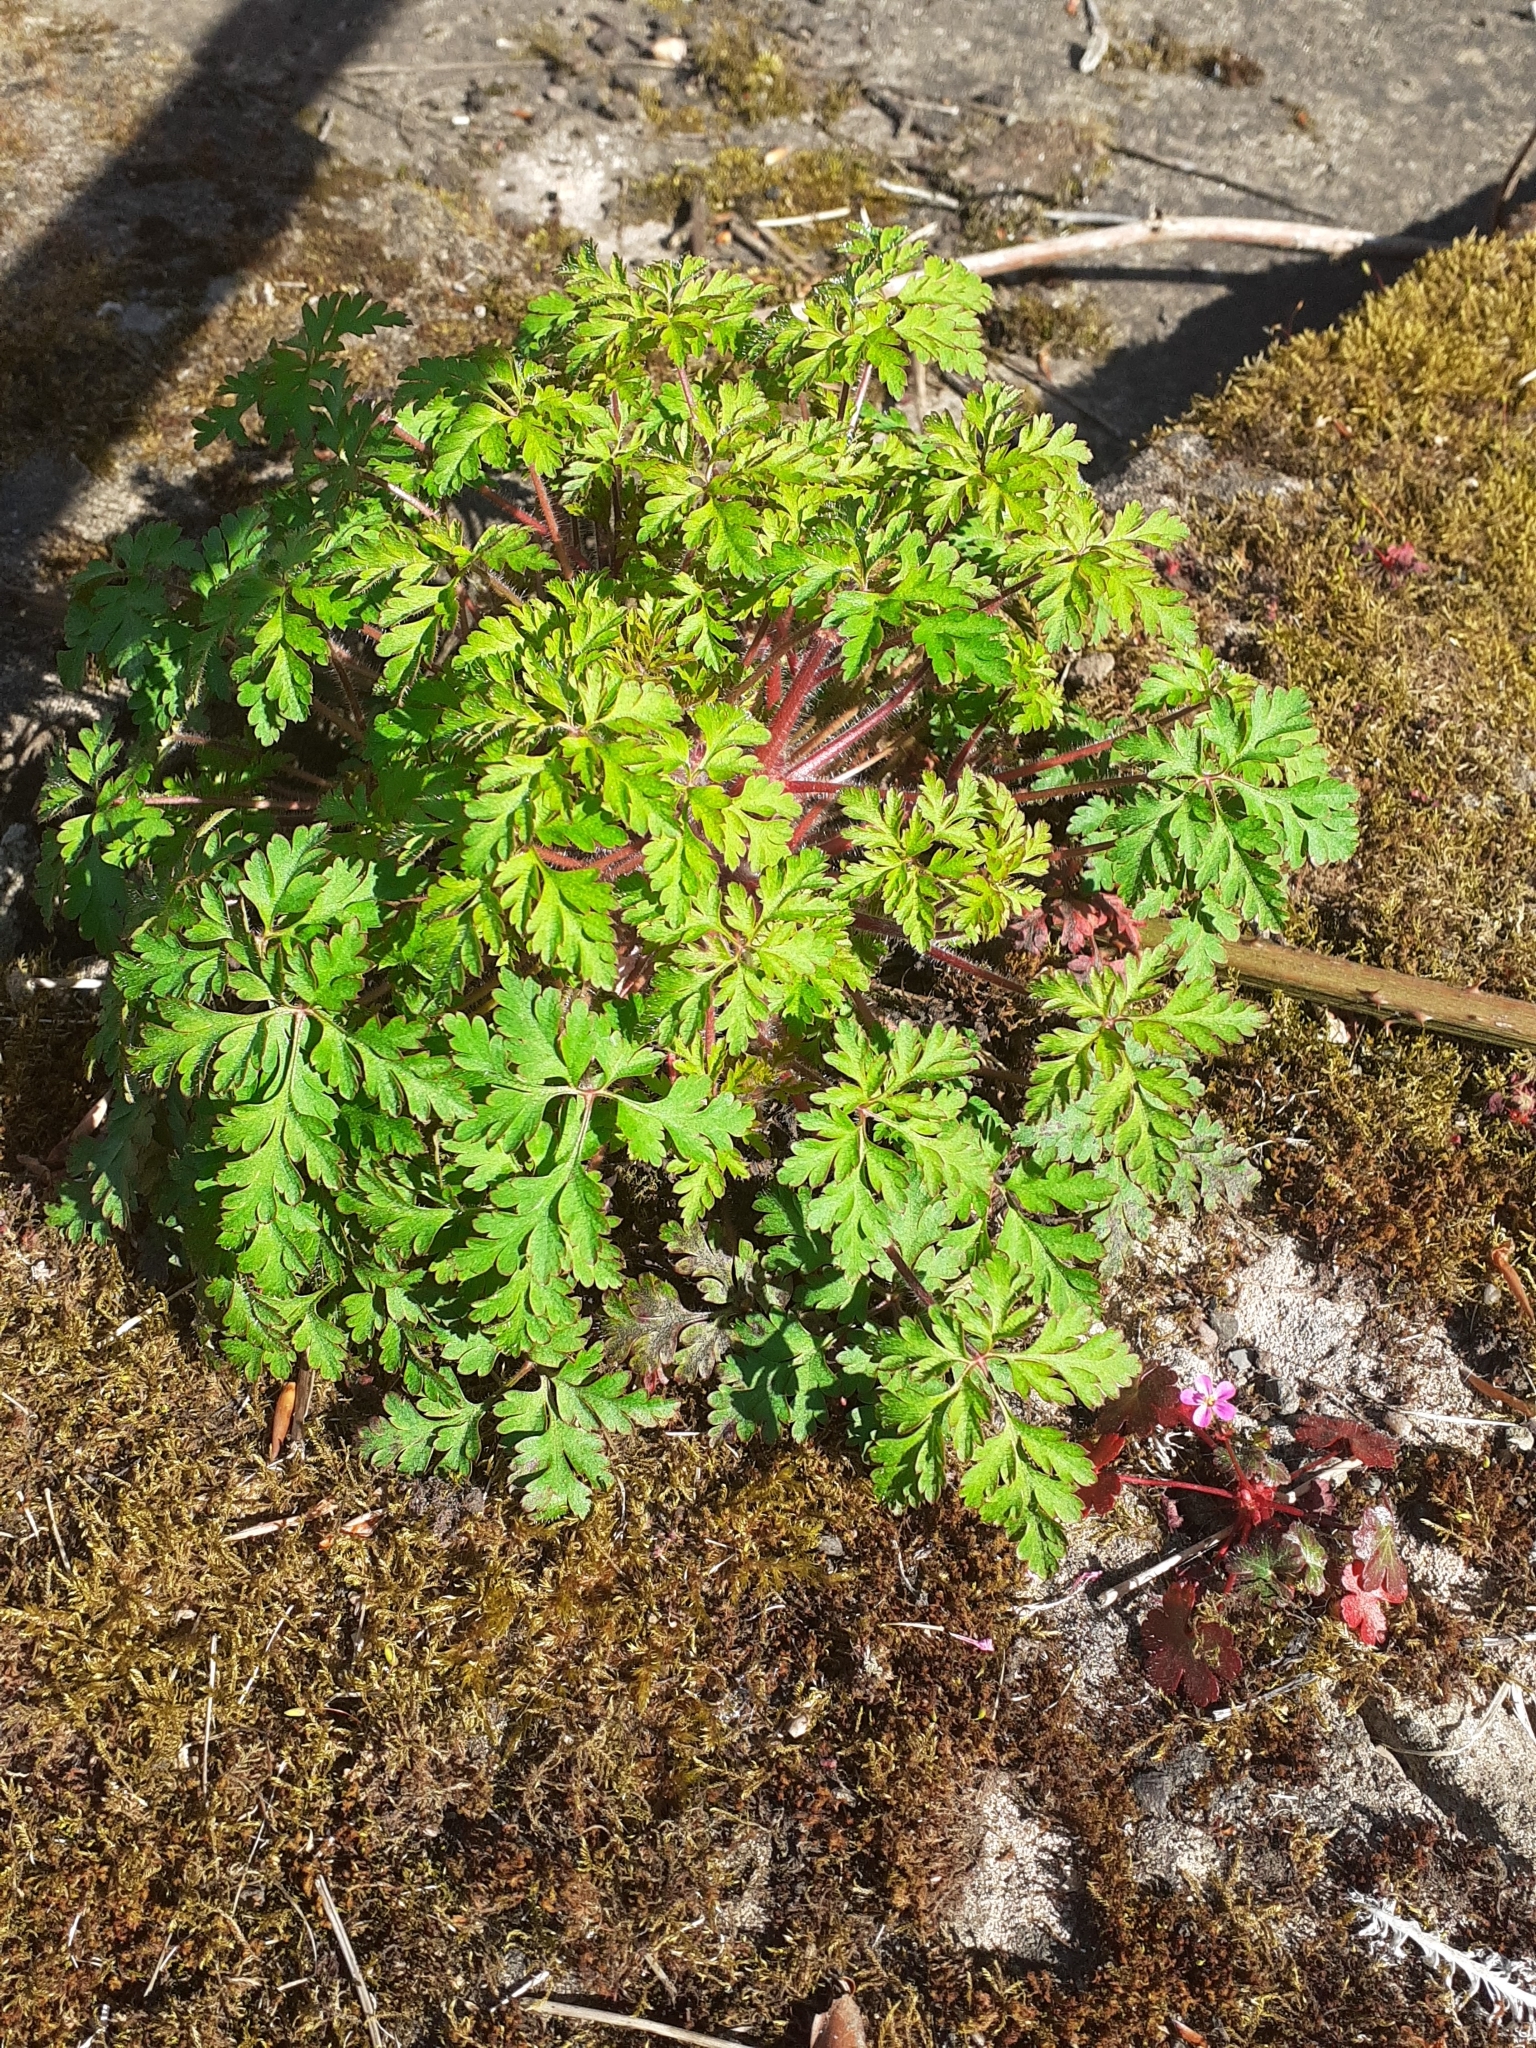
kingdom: Plantae
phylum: Tracheophyta
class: Magnoliopsida
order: Geraniales
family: Geraniaceae
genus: Geranium
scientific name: Geranium robertianum
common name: Herb-robert
